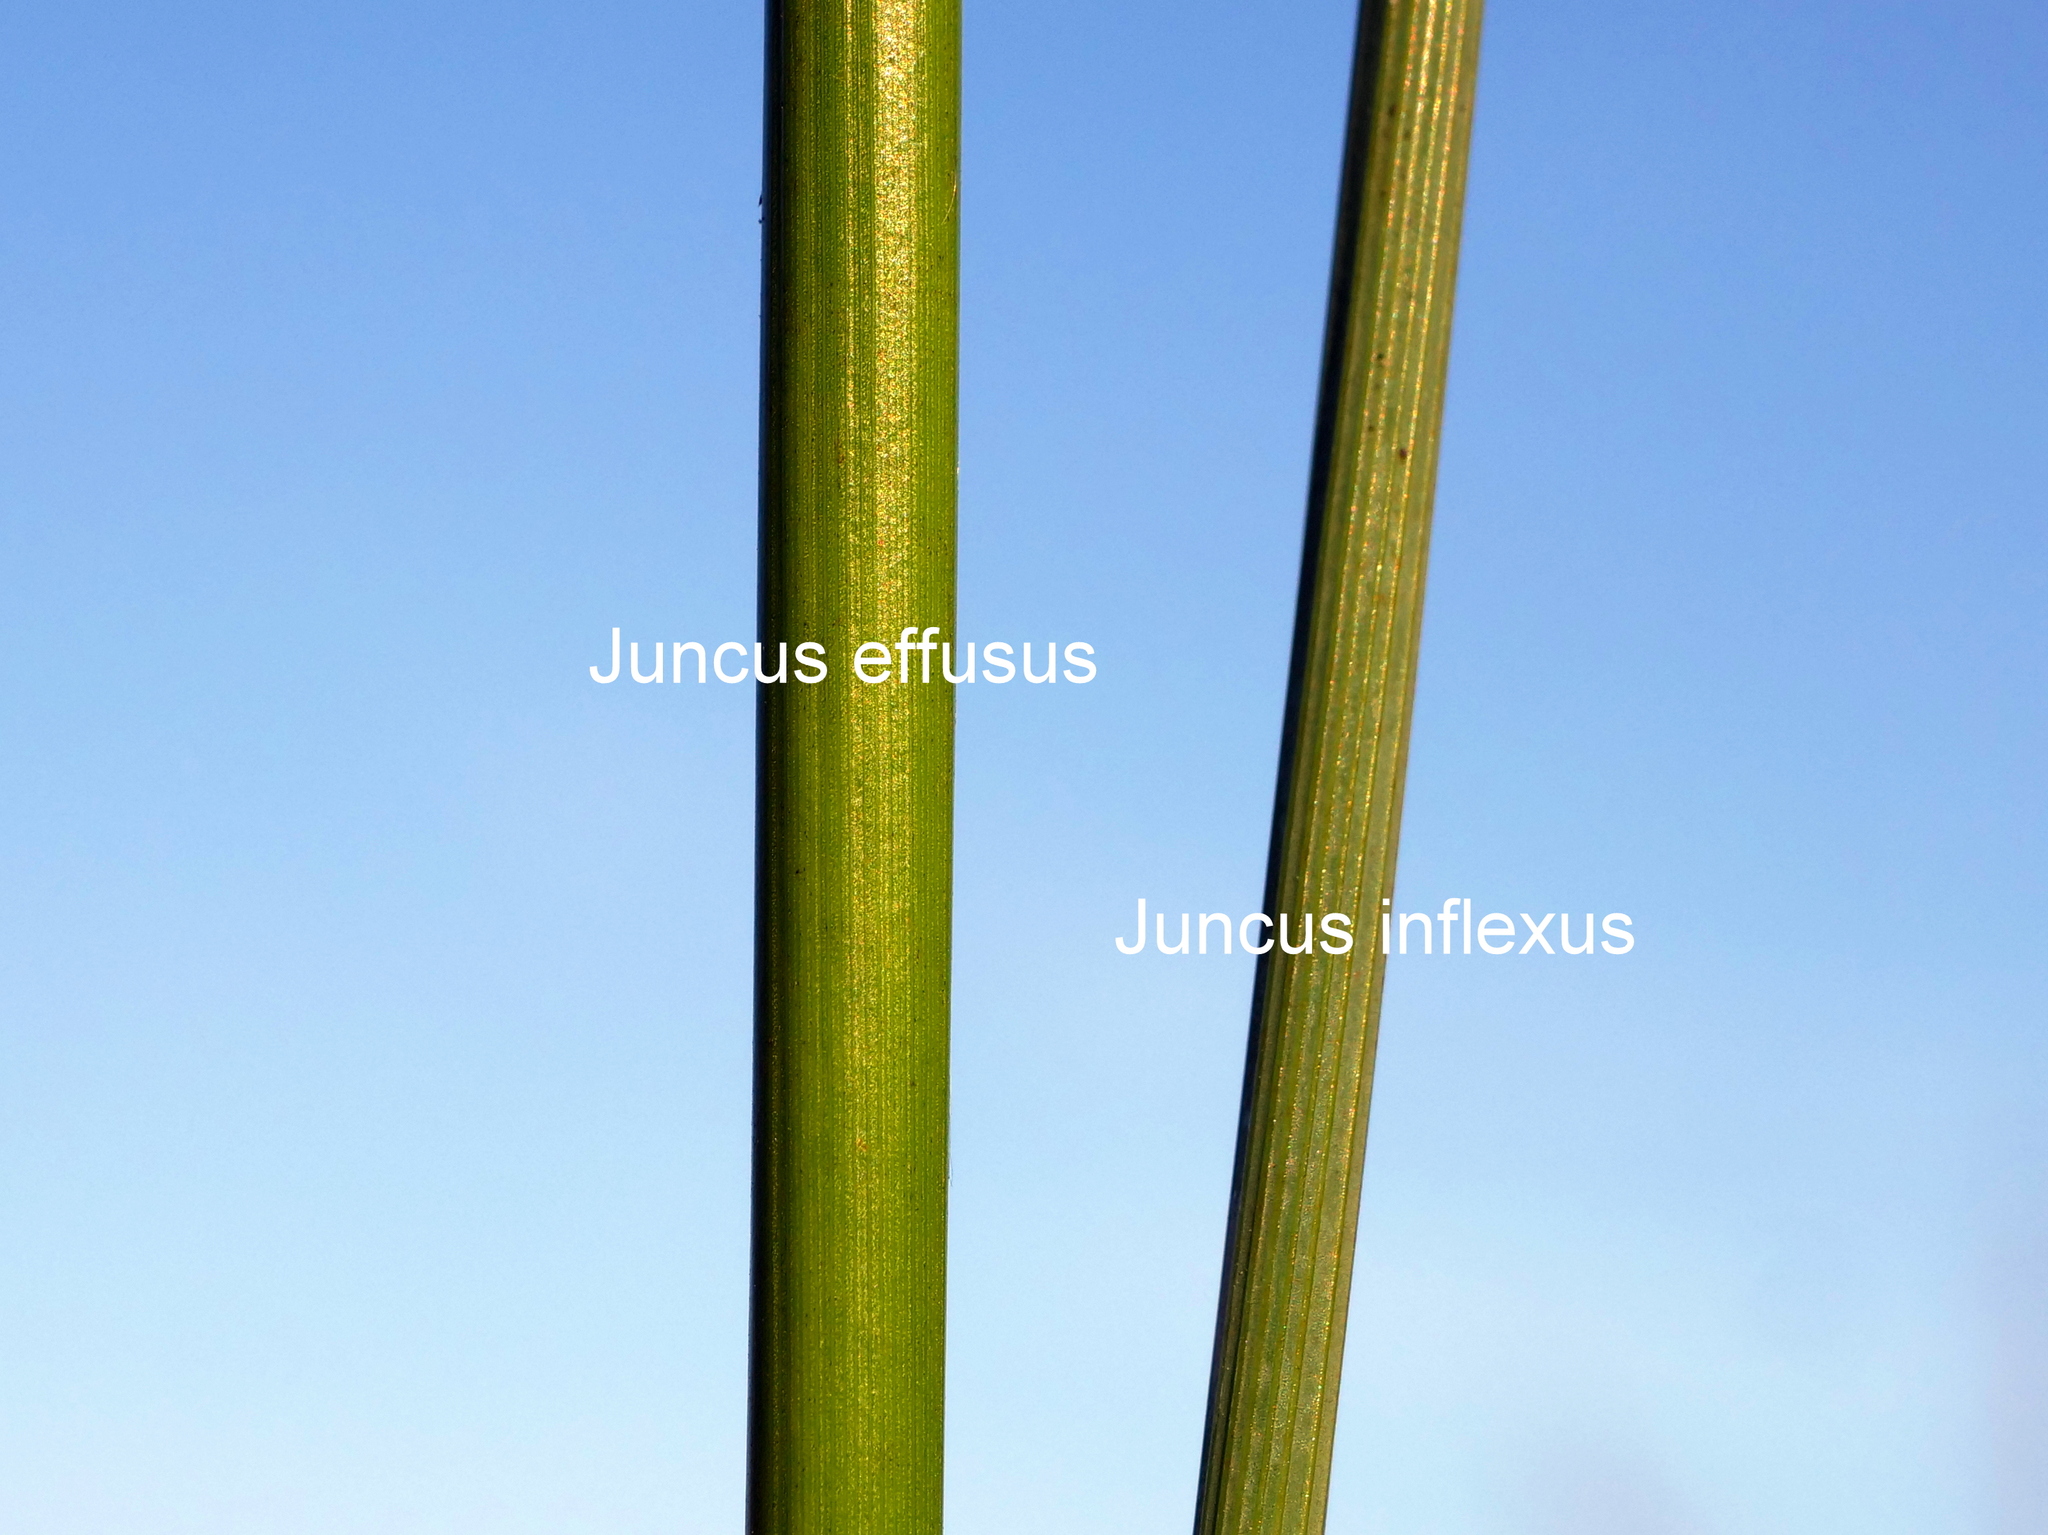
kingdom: Plantae
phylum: Tracheophyta
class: Liliopsida
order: Poales
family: Juncaceae
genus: Juncus
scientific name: Juncus inflexus
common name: Hard rush
